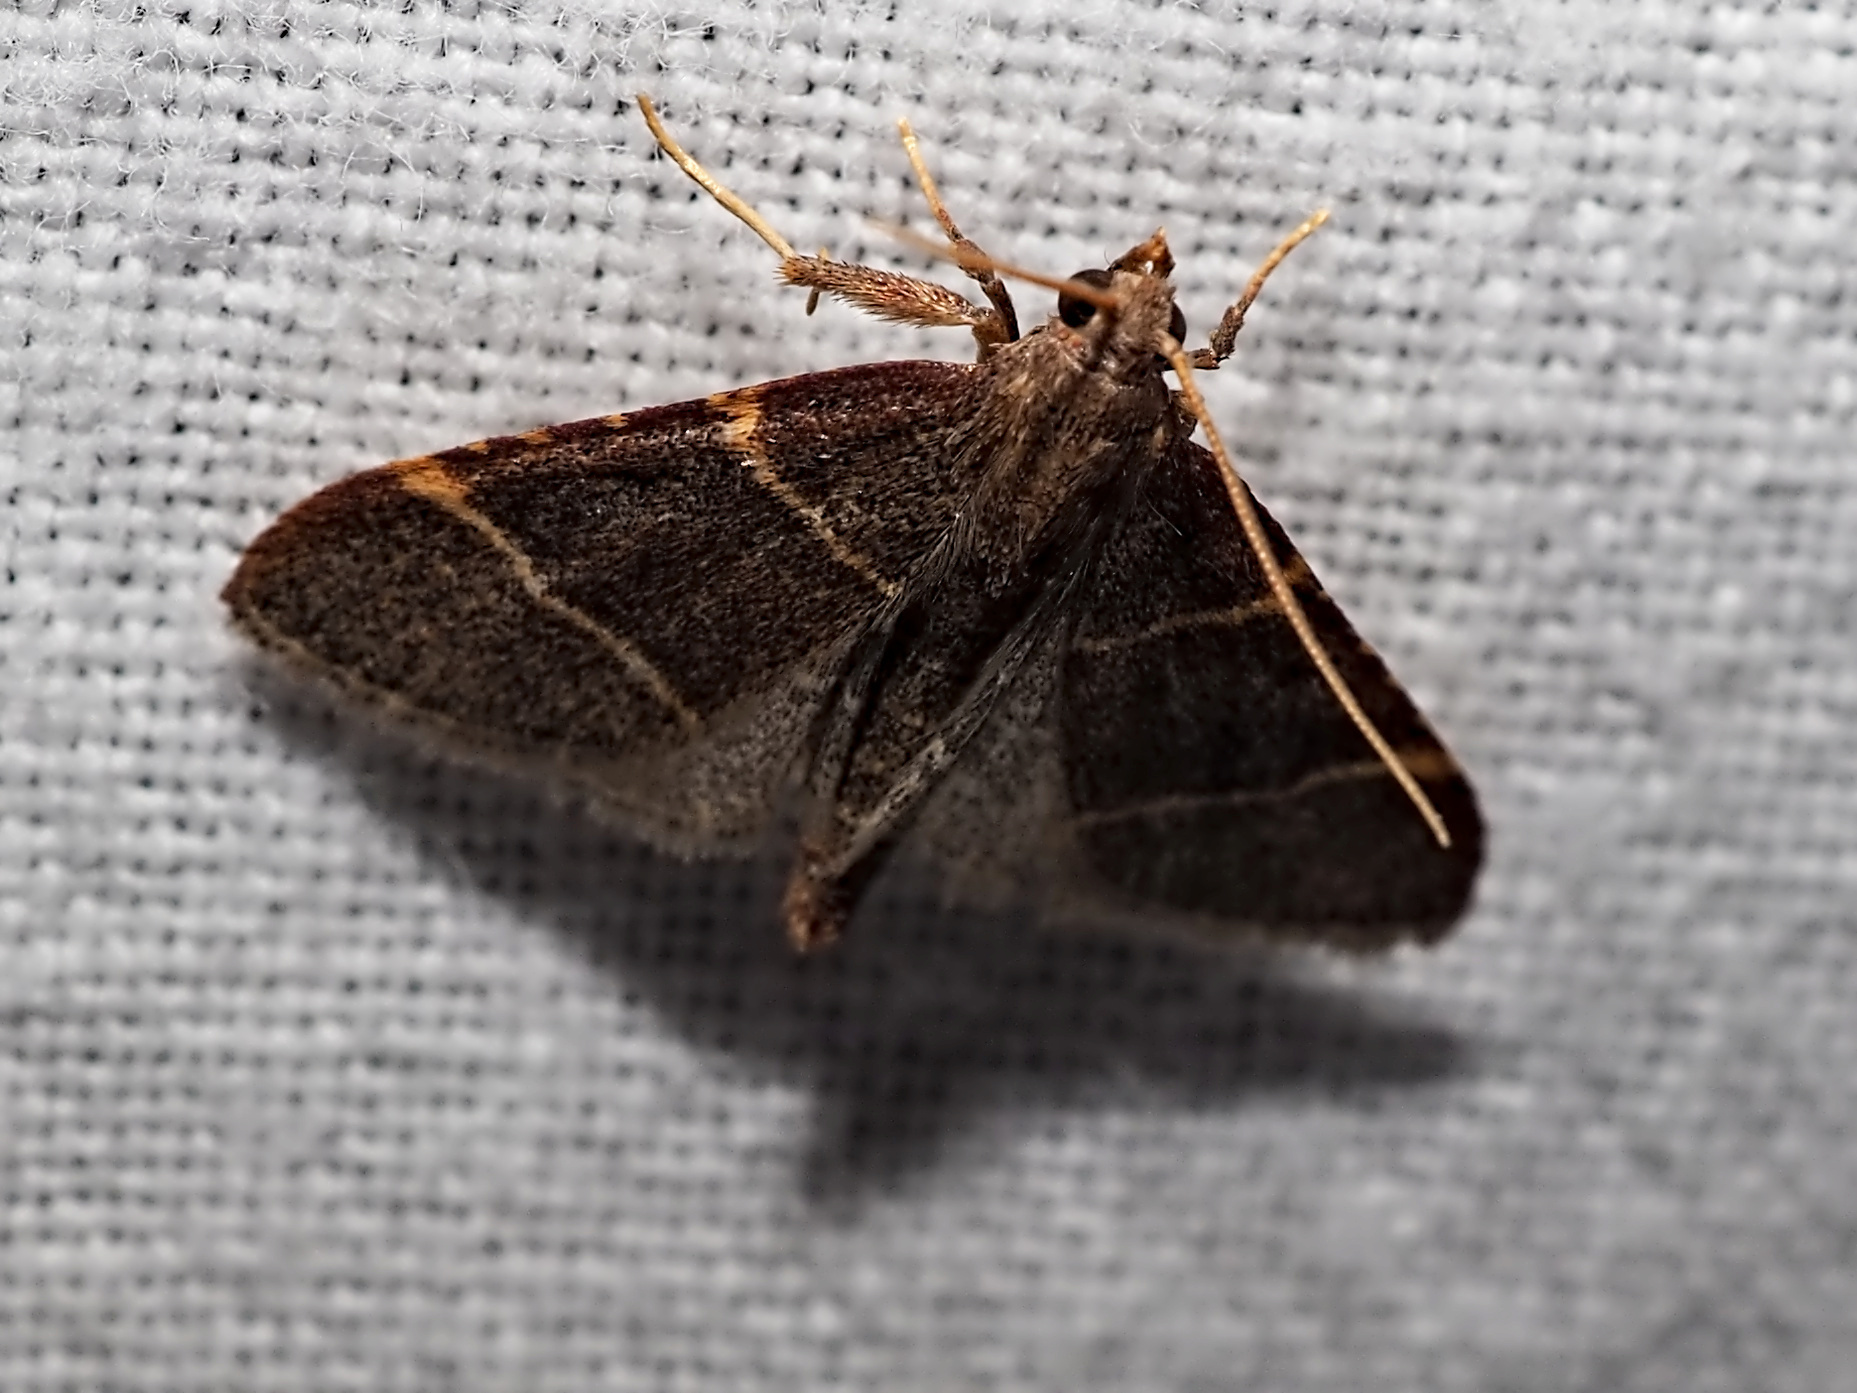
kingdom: Animalia
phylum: Arthropoda
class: Insecta
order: Lepidoptera
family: Pyralidae
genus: Hypsopygia
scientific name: Hypsopygia glaucinalis
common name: Double-striped tabby
